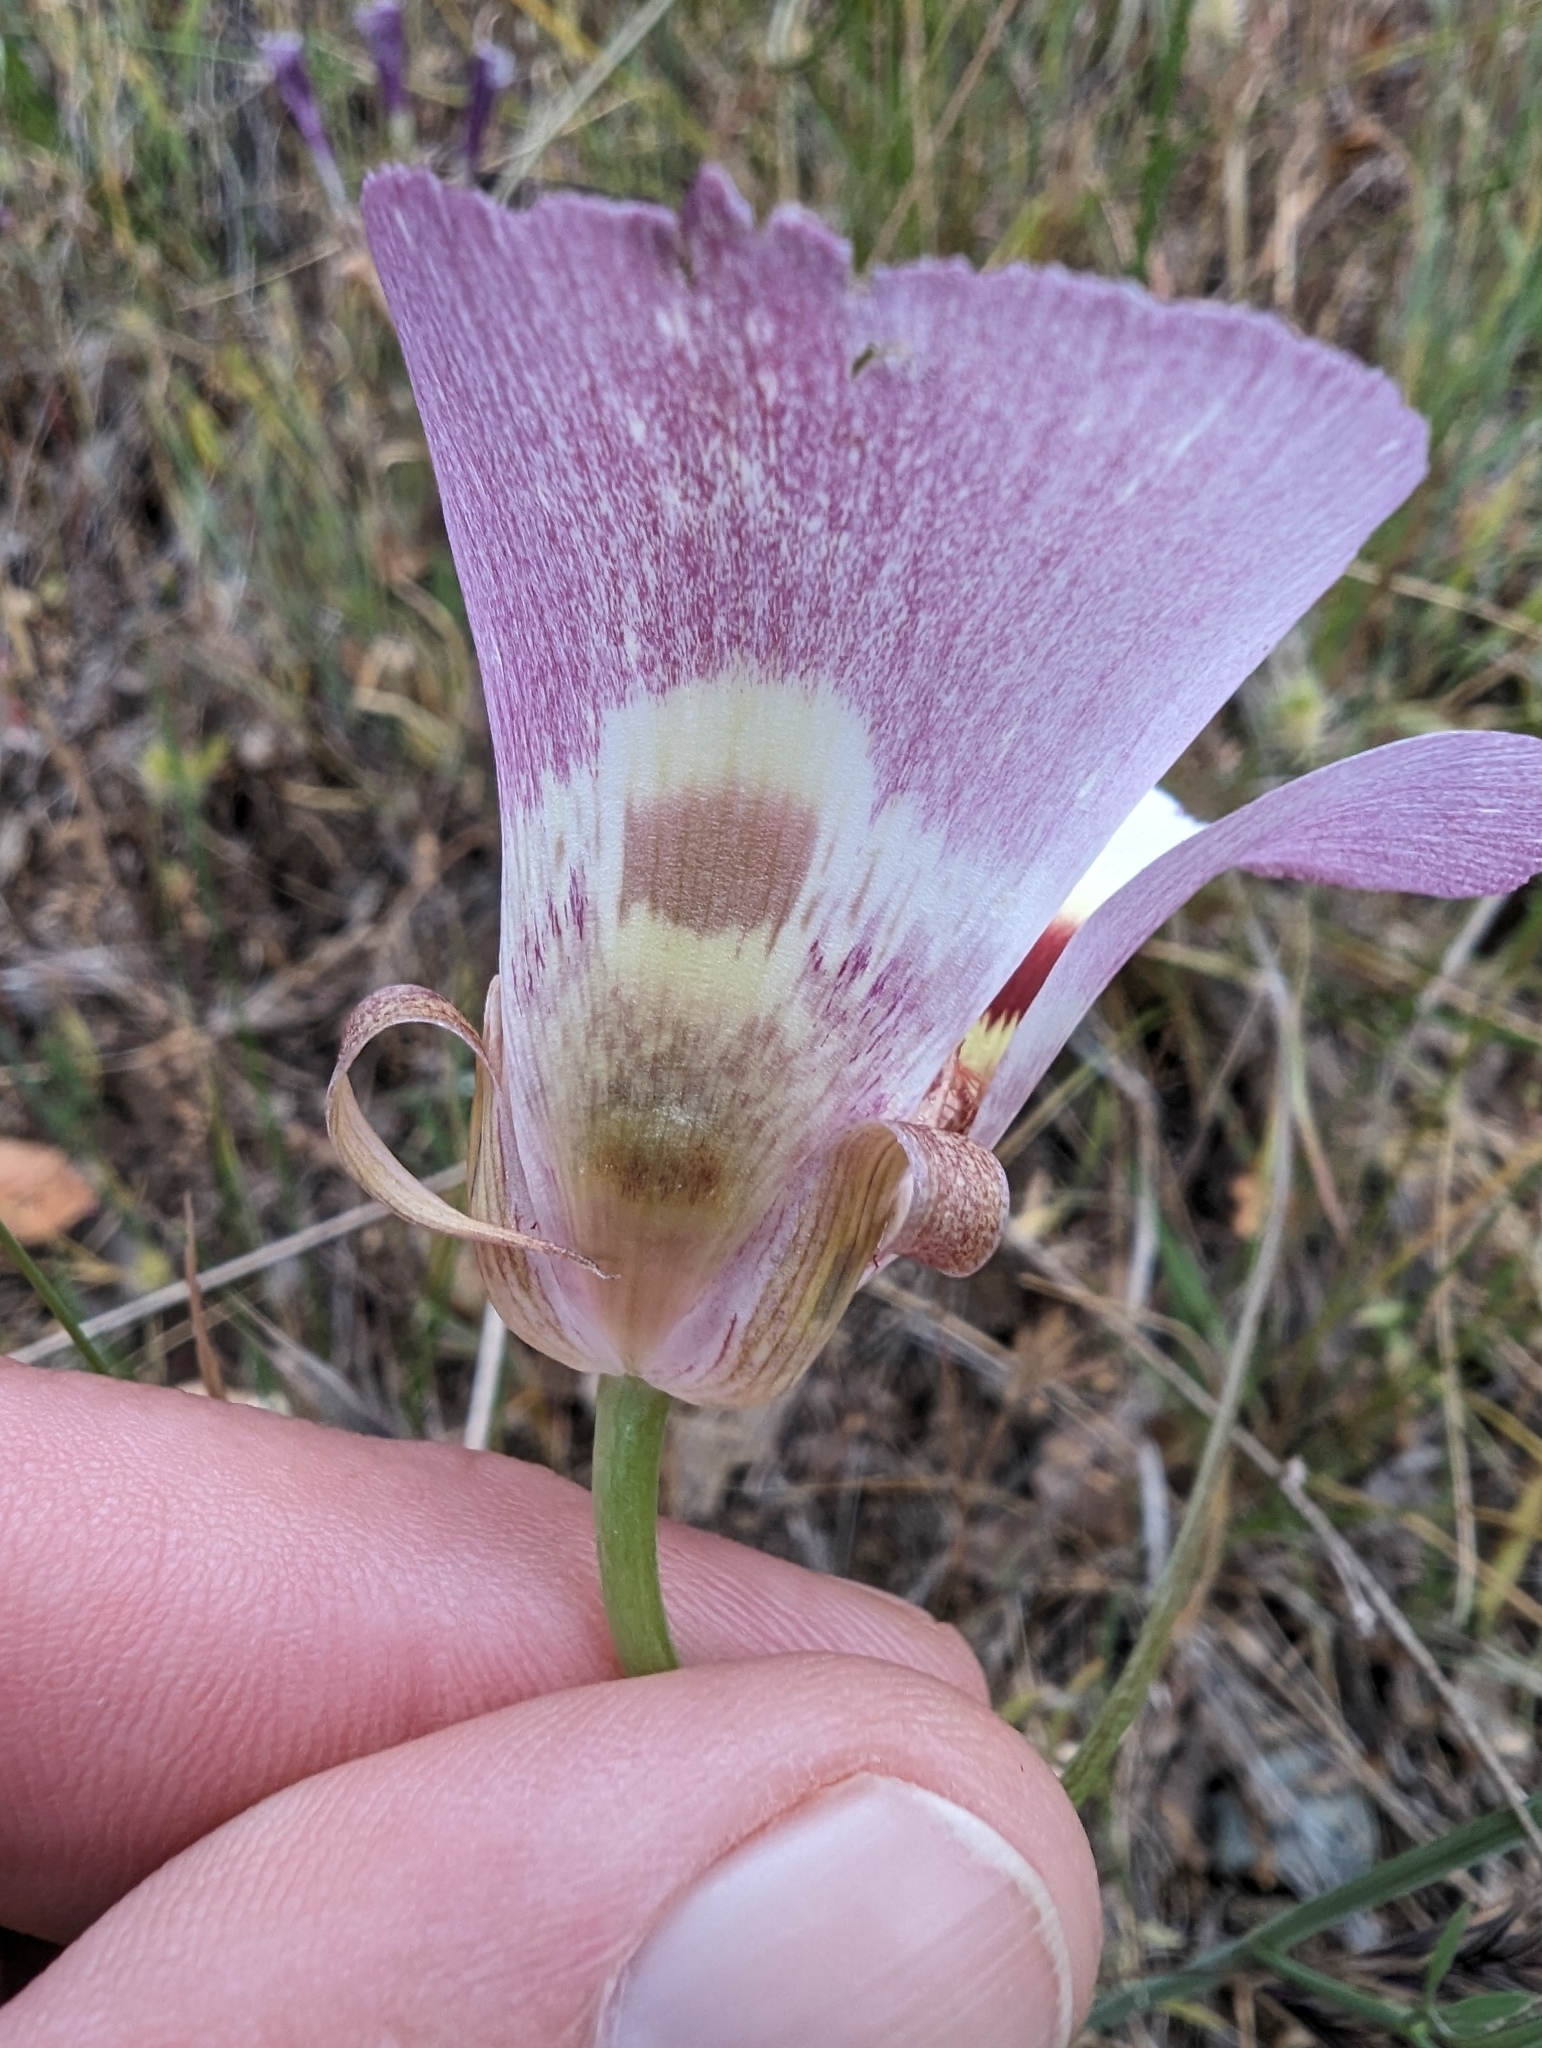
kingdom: Plantae
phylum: Tracheophyta
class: Liliopsida
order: Liliales
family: Liliaceae
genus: Calochortus
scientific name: Calochortus argillosus
